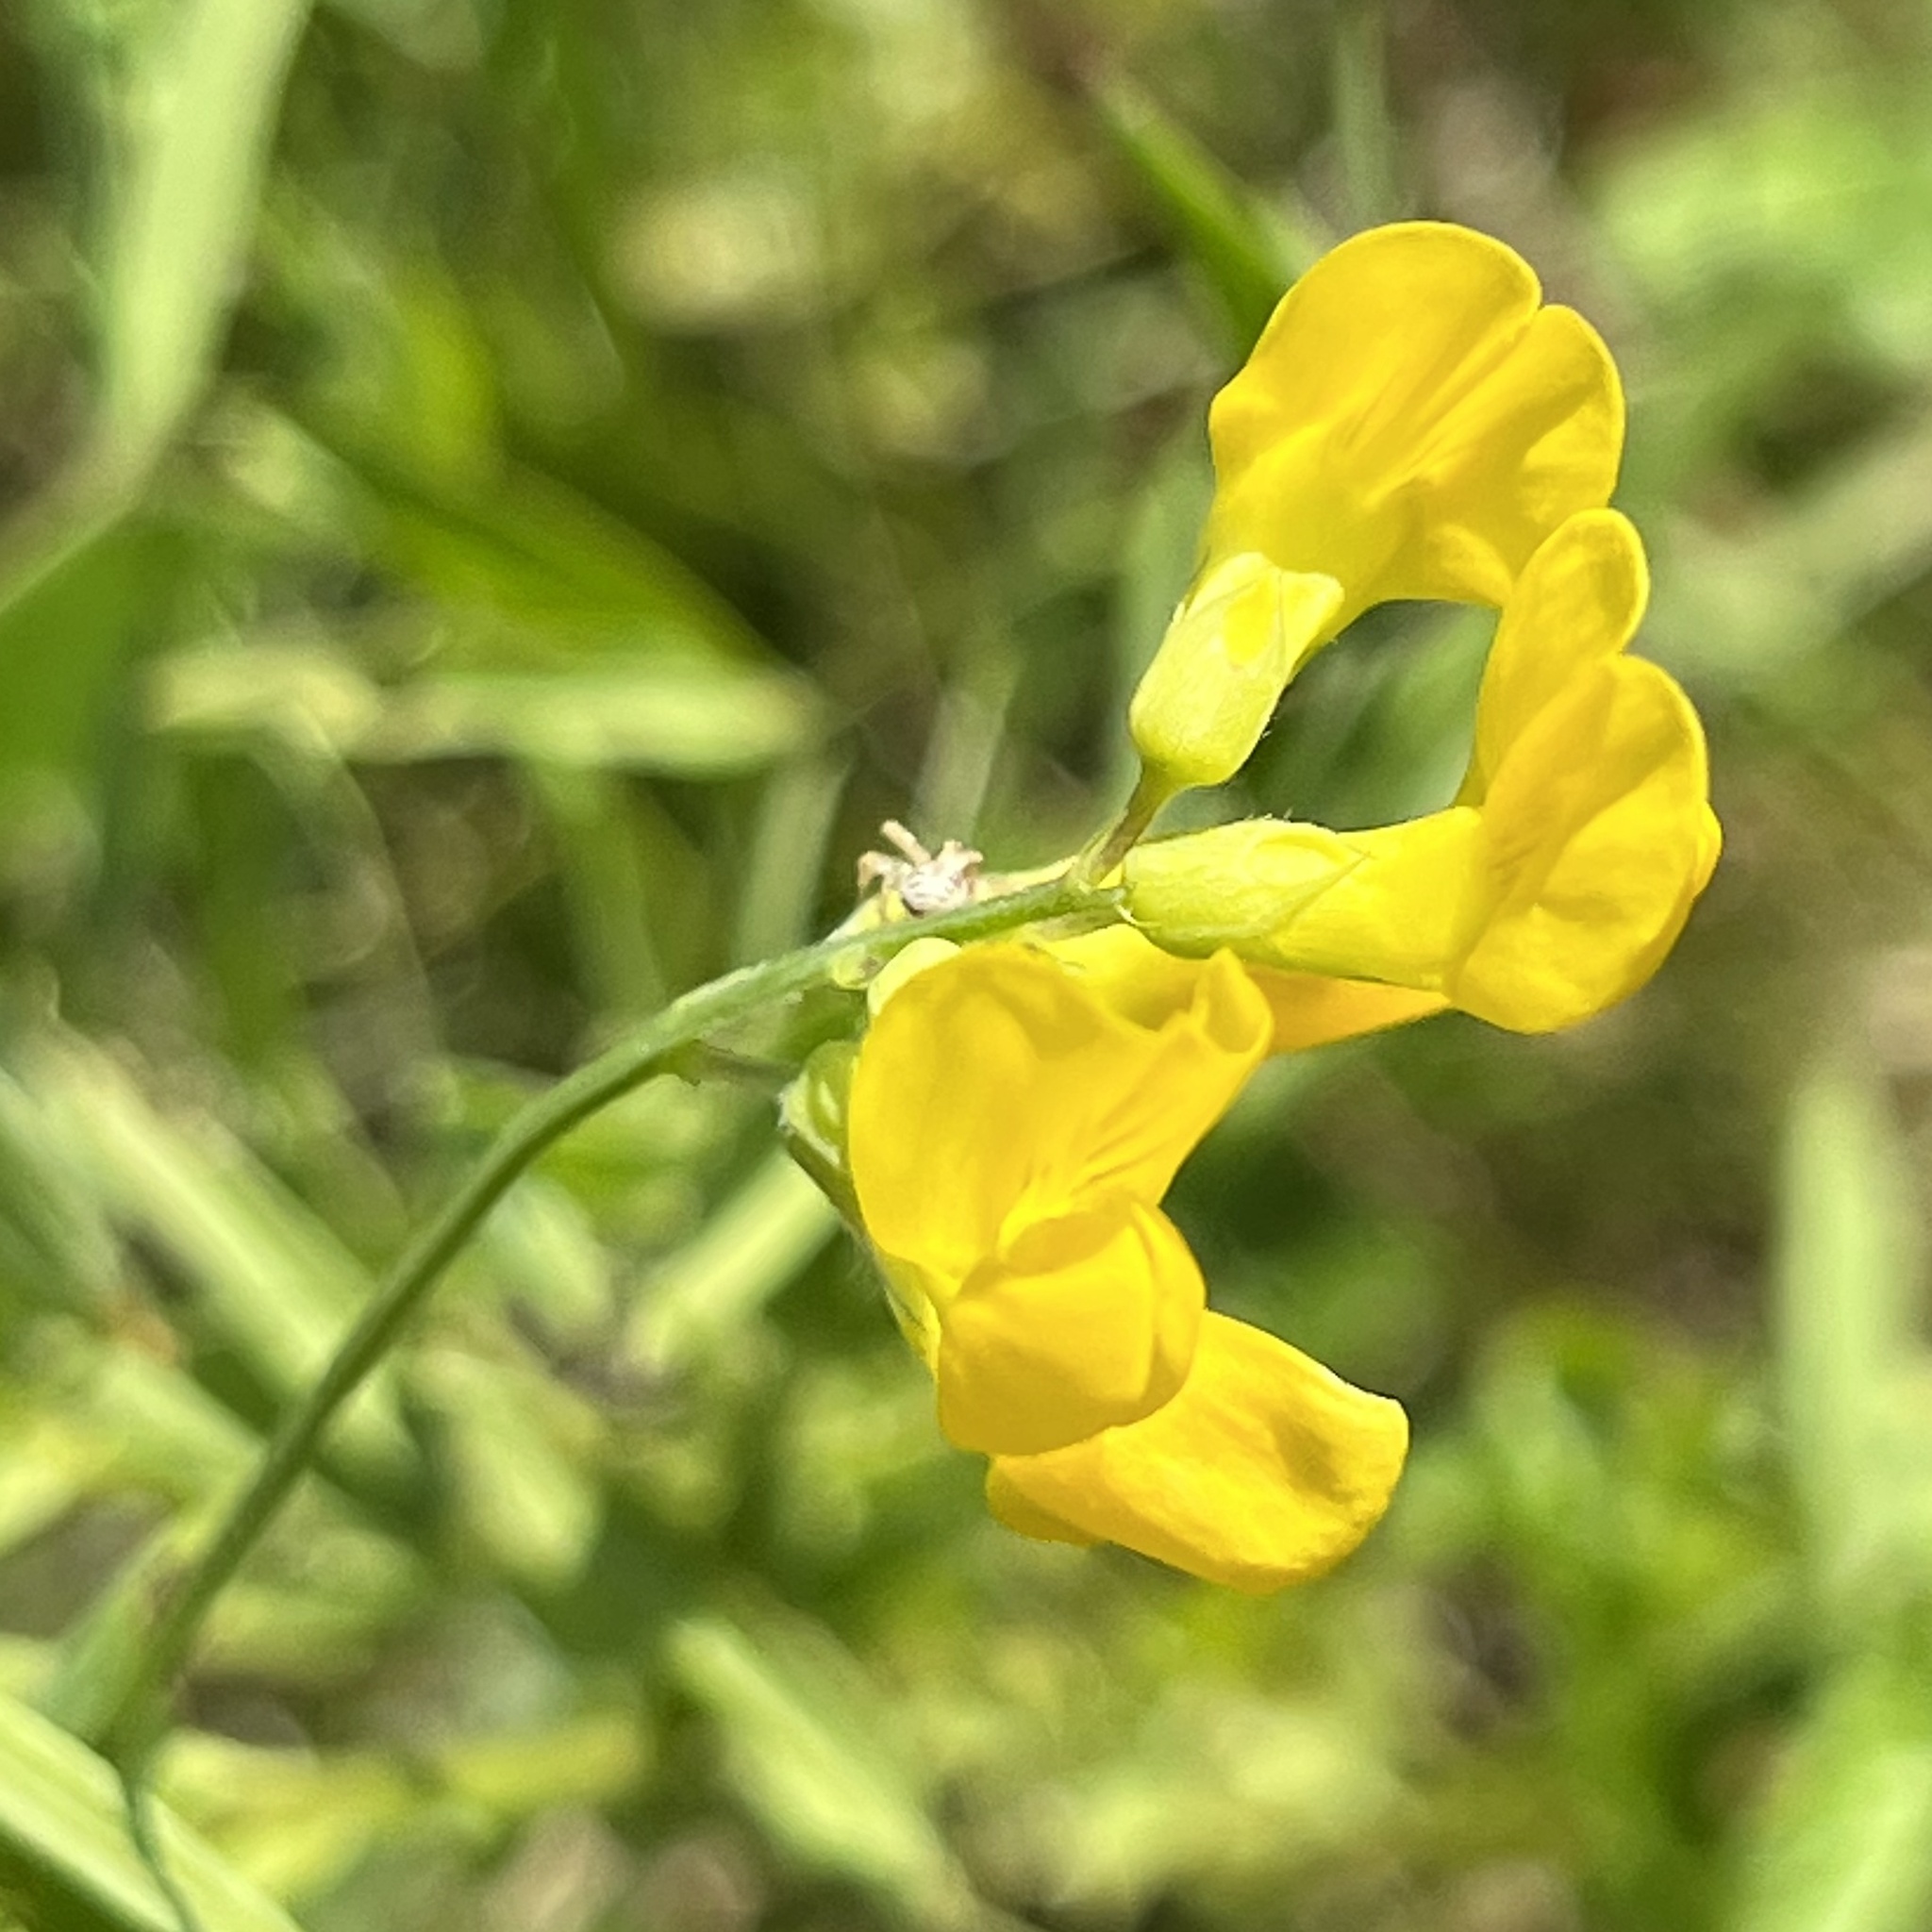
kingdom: Plantae
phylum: Tracheophyta
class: Magnoliopsida
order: Fabales
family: Fabaceae
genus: Lathyrus
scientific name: Lathyrus pratensis
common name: Meadow vetchling
